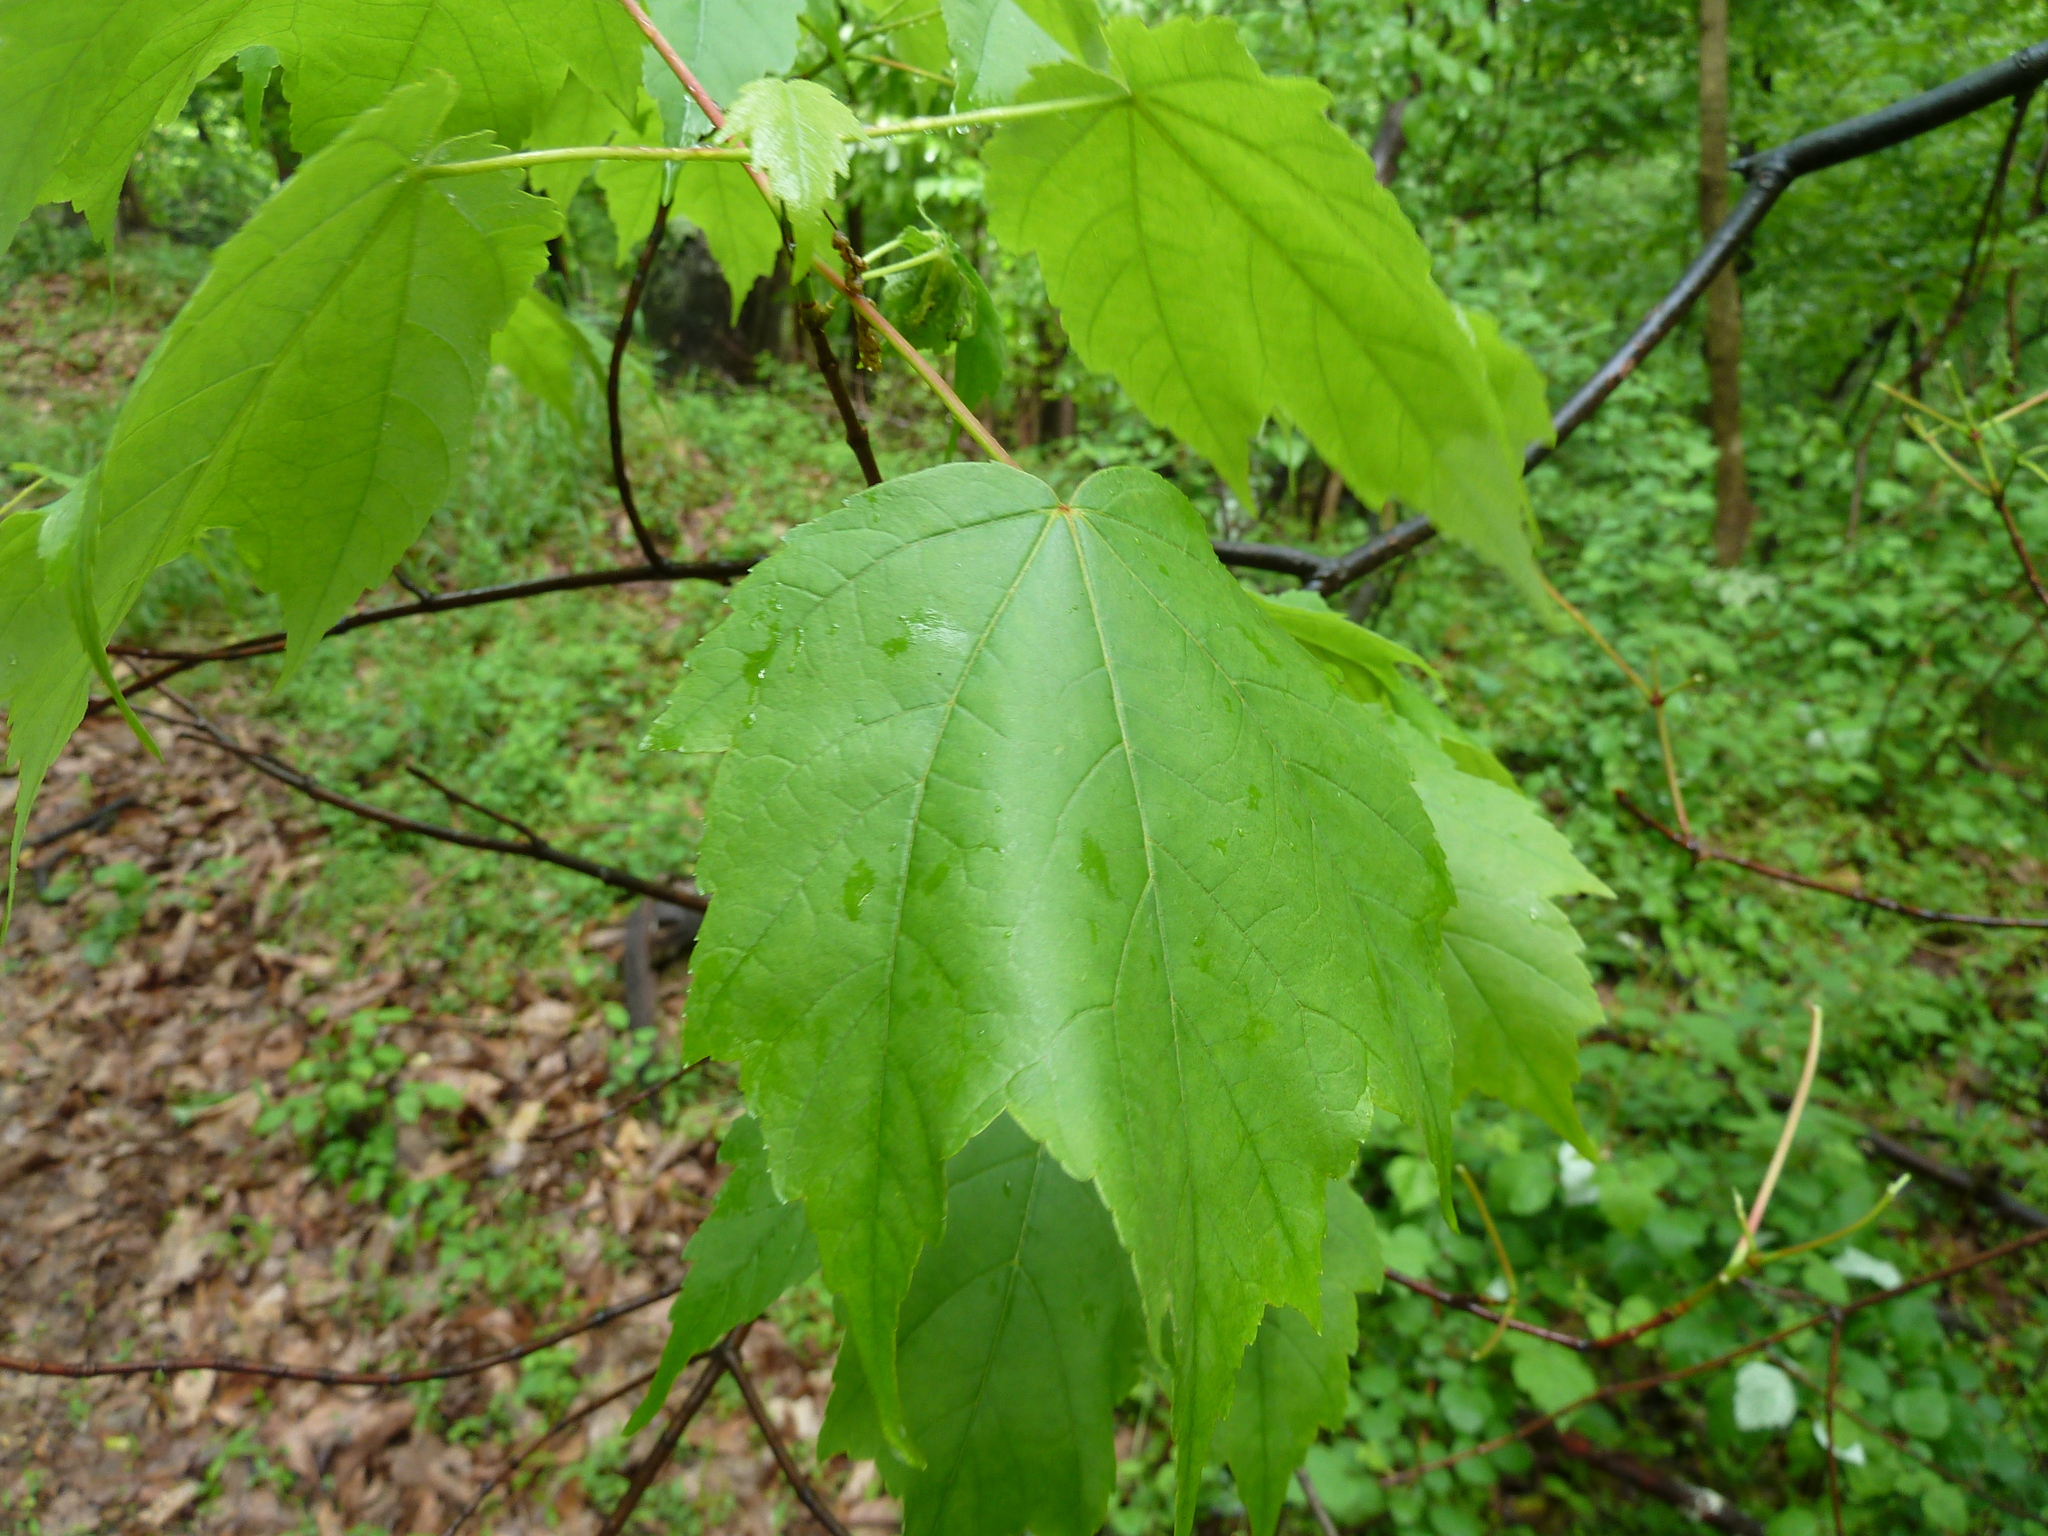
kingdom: Plantae
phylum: Tracheophyta
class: Magnoliopsida
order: Sapindales
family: Sapindaceae
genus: Acer
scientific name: Acer rubrum
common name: Red maple
